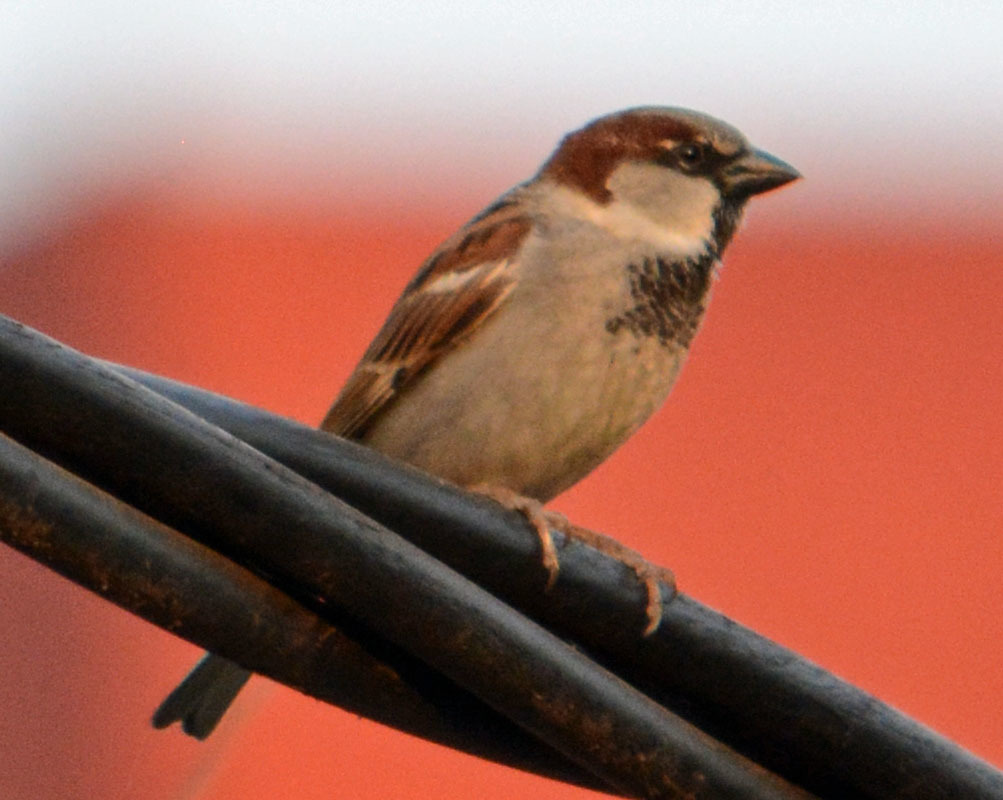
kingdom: Animalia
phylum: Chordata
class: Aves
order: Passeriformes
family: Passeridae
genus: Passer
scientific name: Passer domesticus
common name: House sparrow
